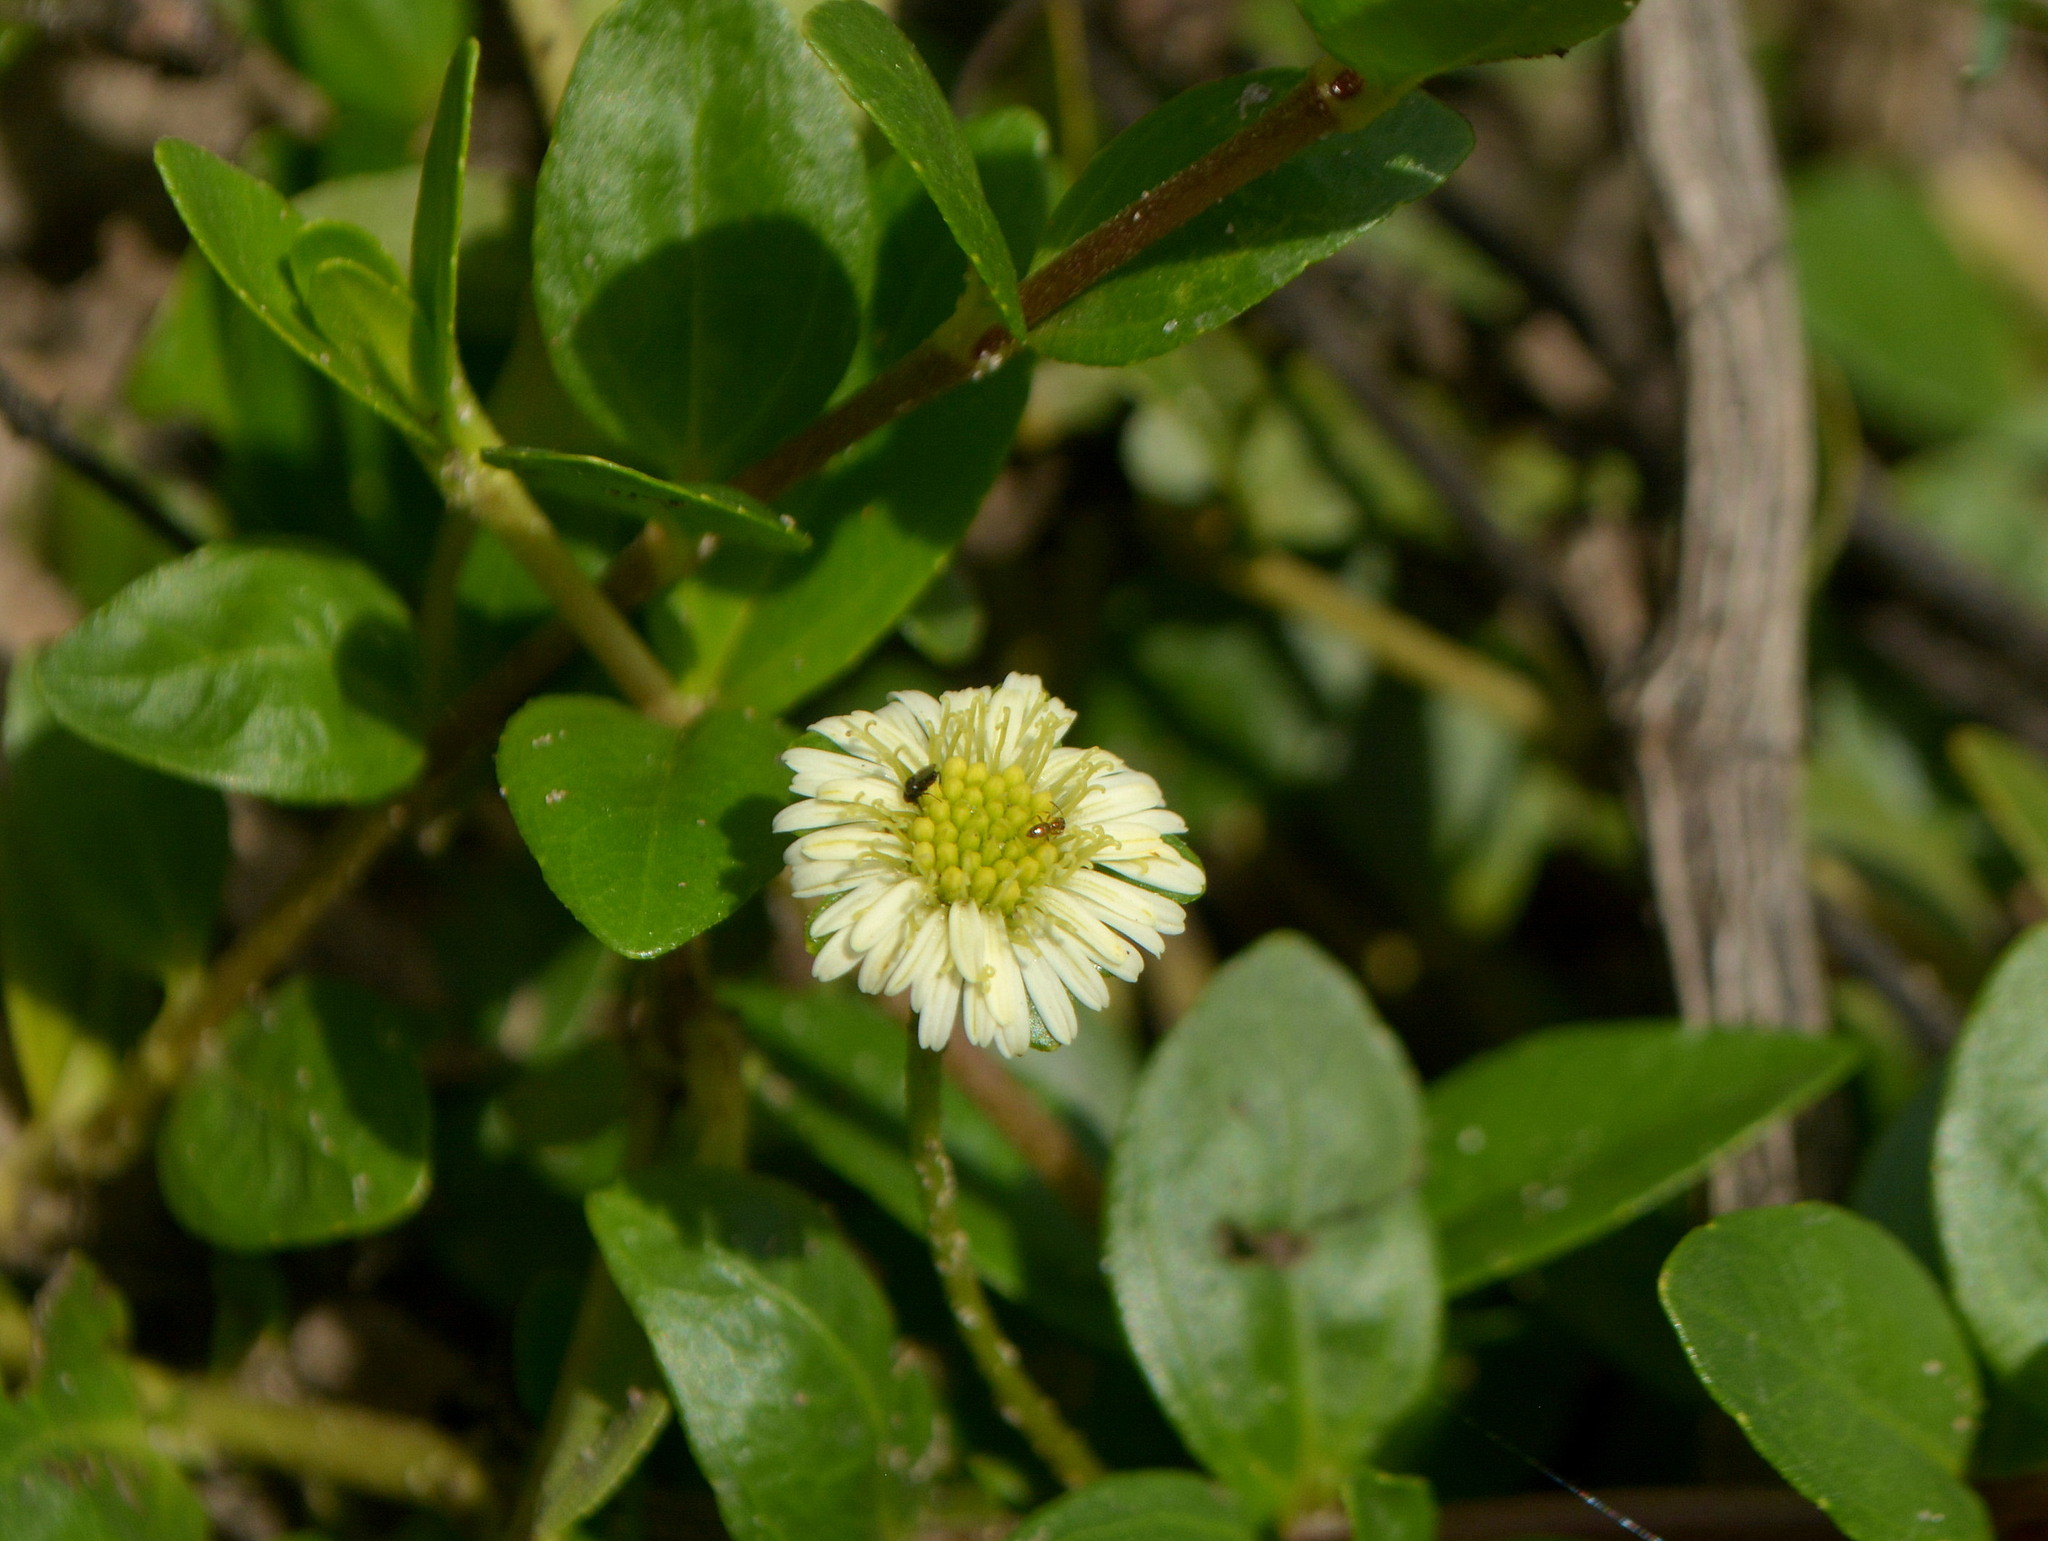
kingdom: Plantae
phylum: Tracheophyta
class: Magnoliopsida
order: Asterales
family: Asteraceae
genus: Eclipta
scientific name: Eclipta elliptica
